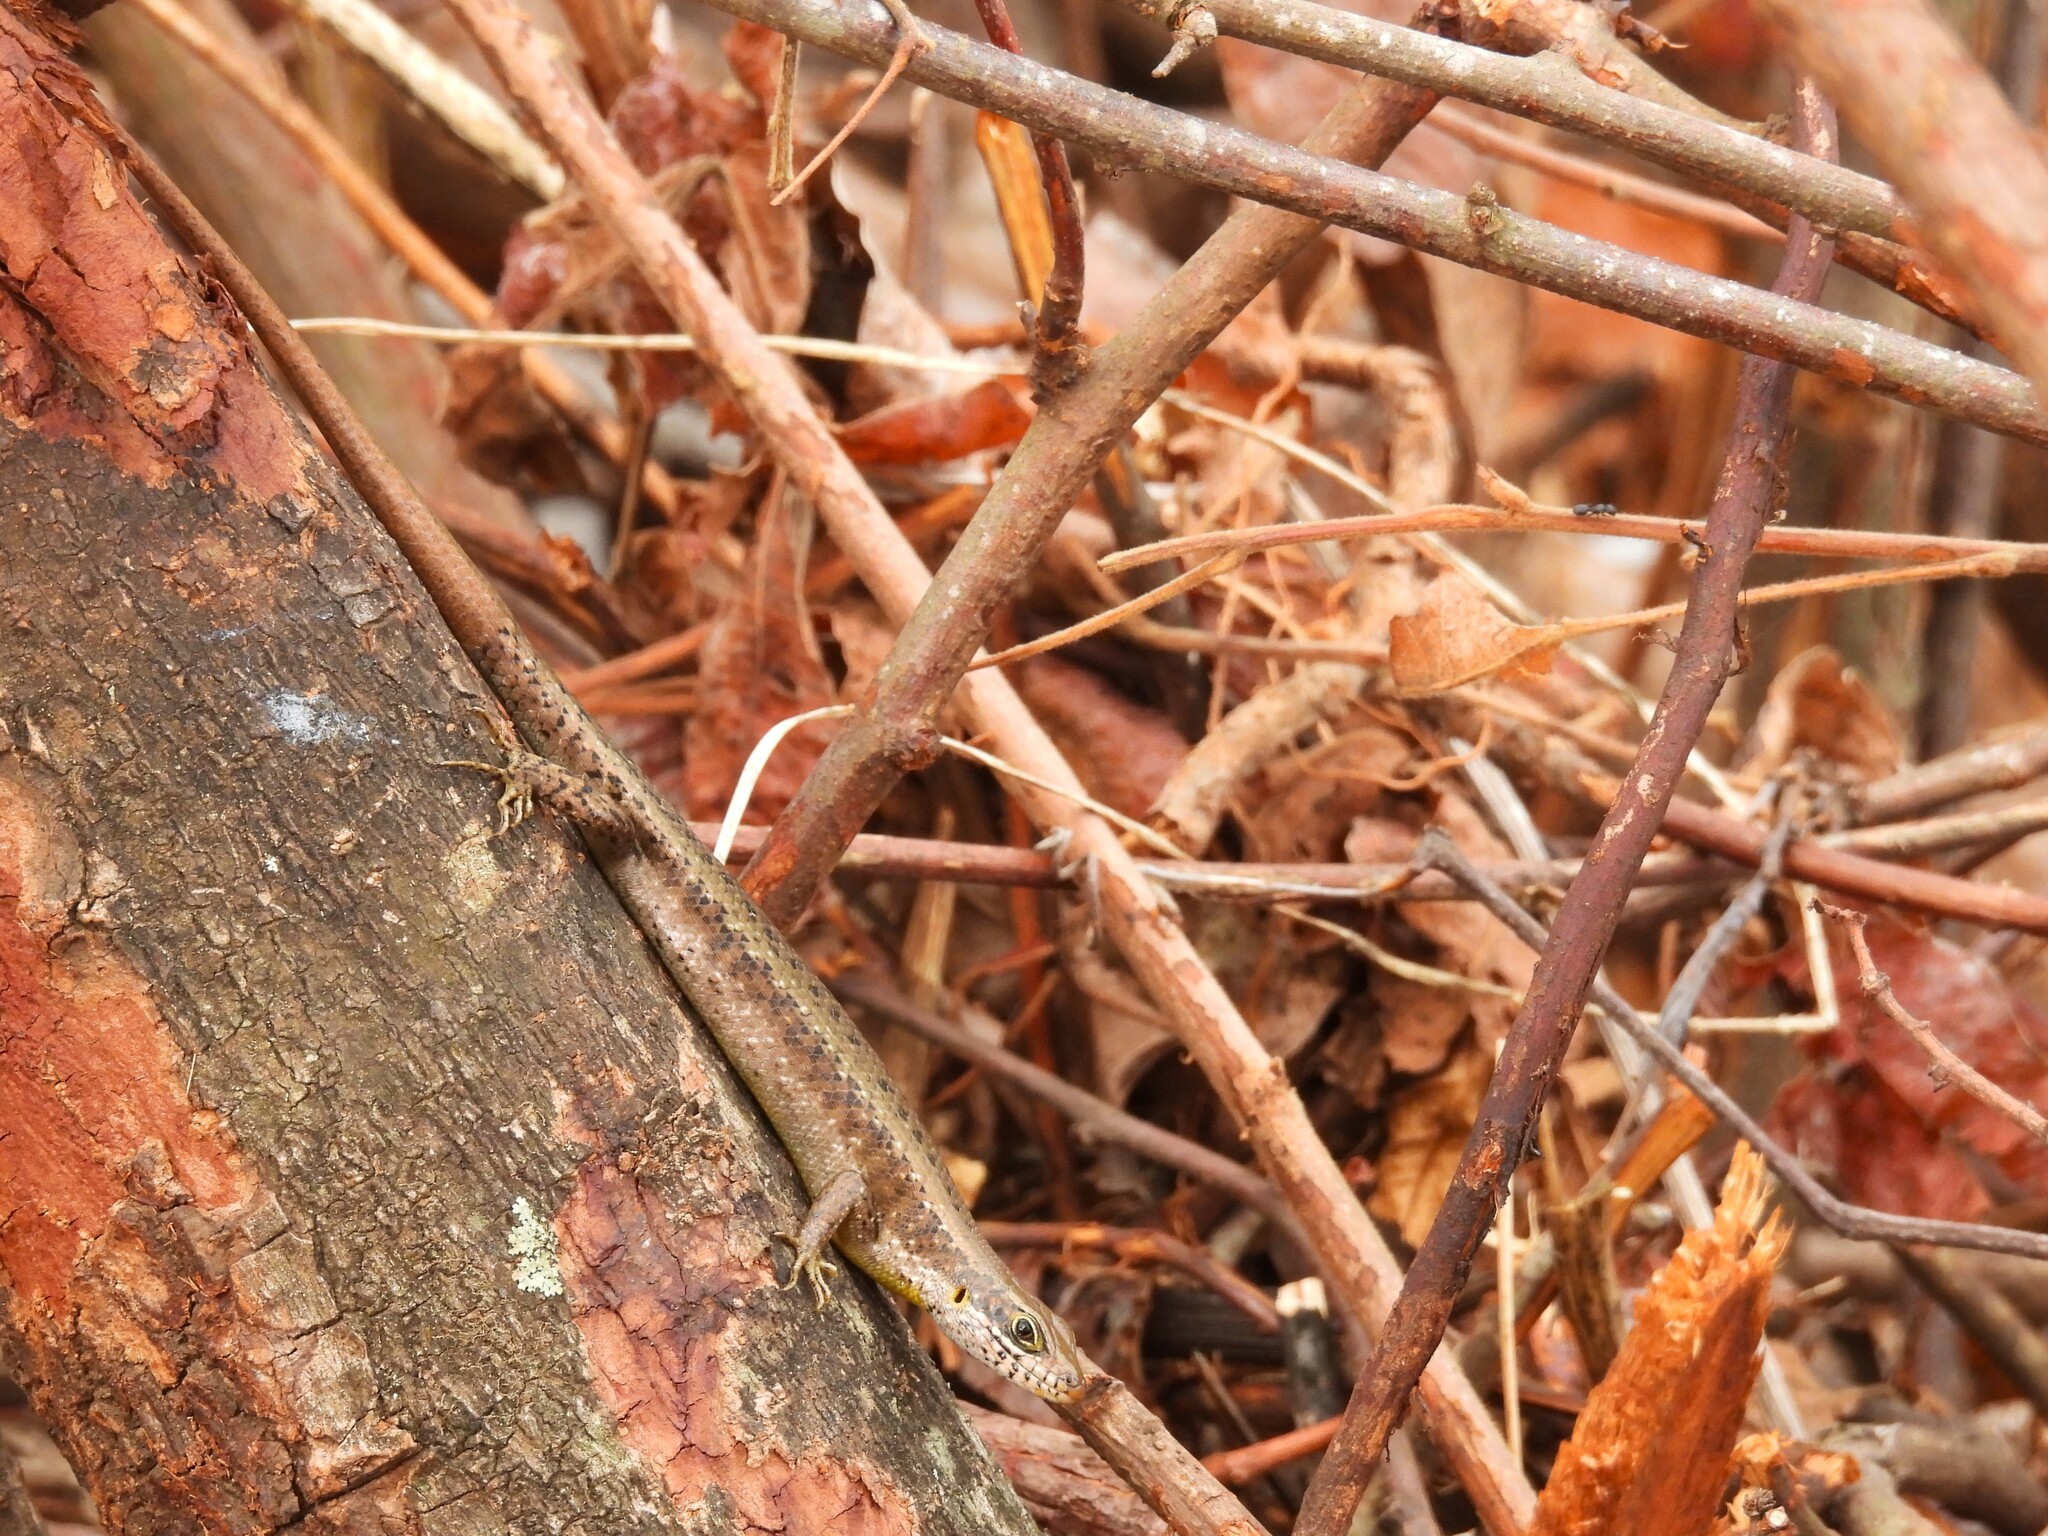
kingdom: Animalia
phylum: Chordata
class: Squamata
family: Scincidae
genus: Trachylepis
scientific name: Trachylepis maculilabris
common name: Speckle-lipped mabuya
